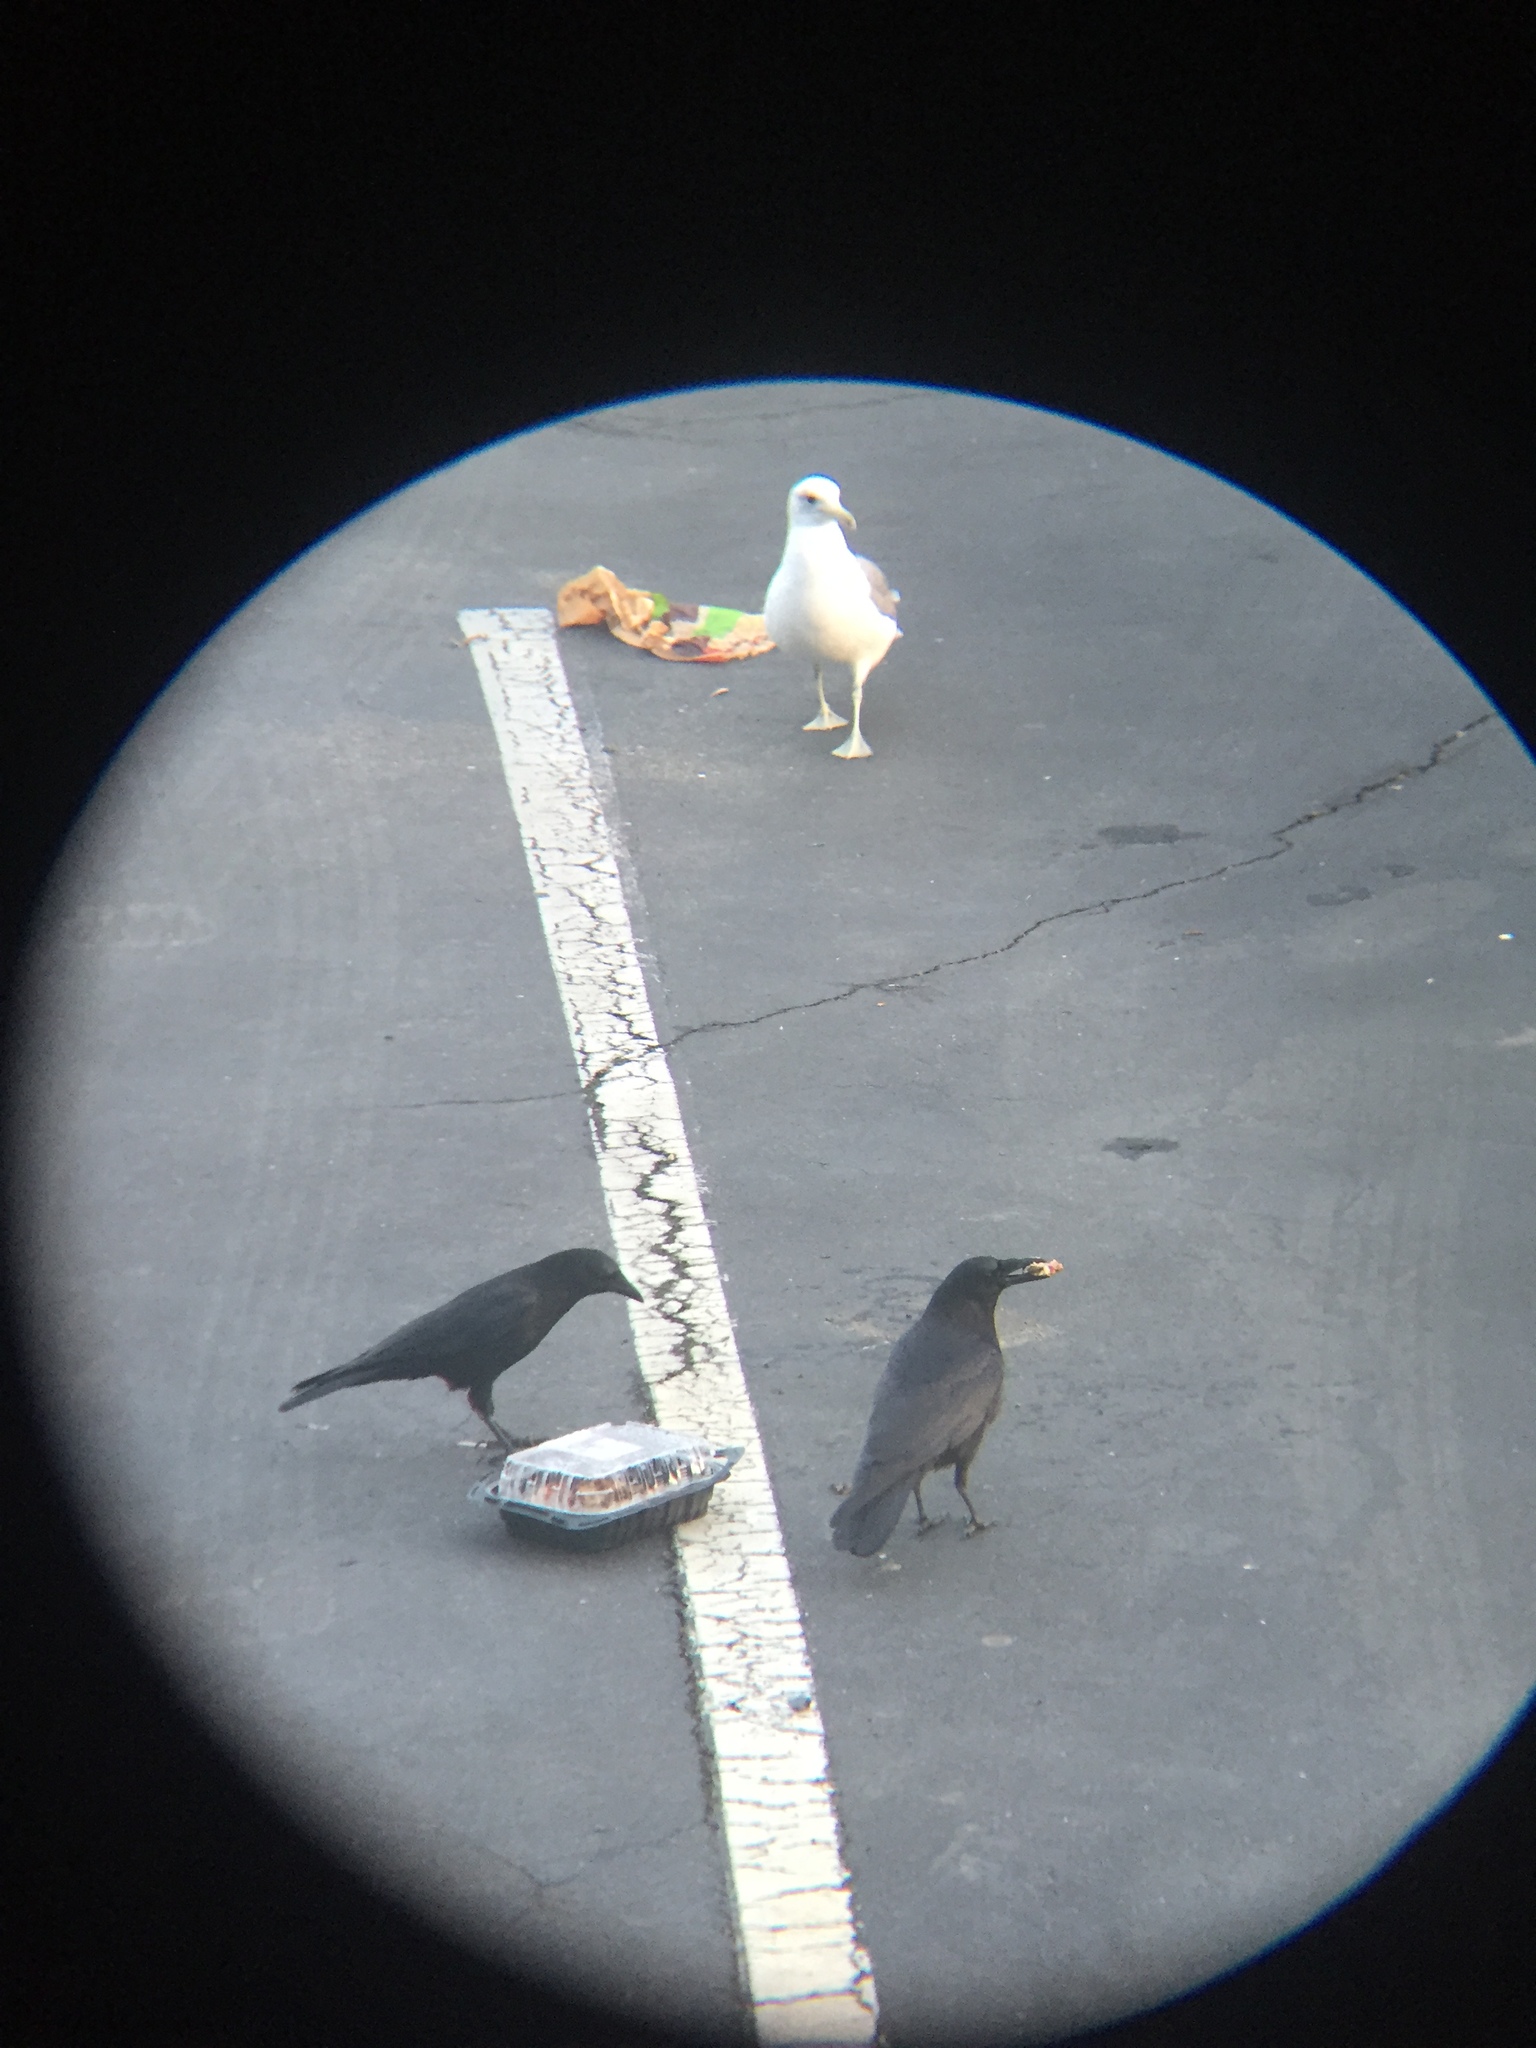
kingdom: Animalia
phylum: Chordata
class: Aves
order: Passeriformes
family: Corvidae
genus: Corvus
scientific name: Corvus brachyrhynchos
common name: American crow
